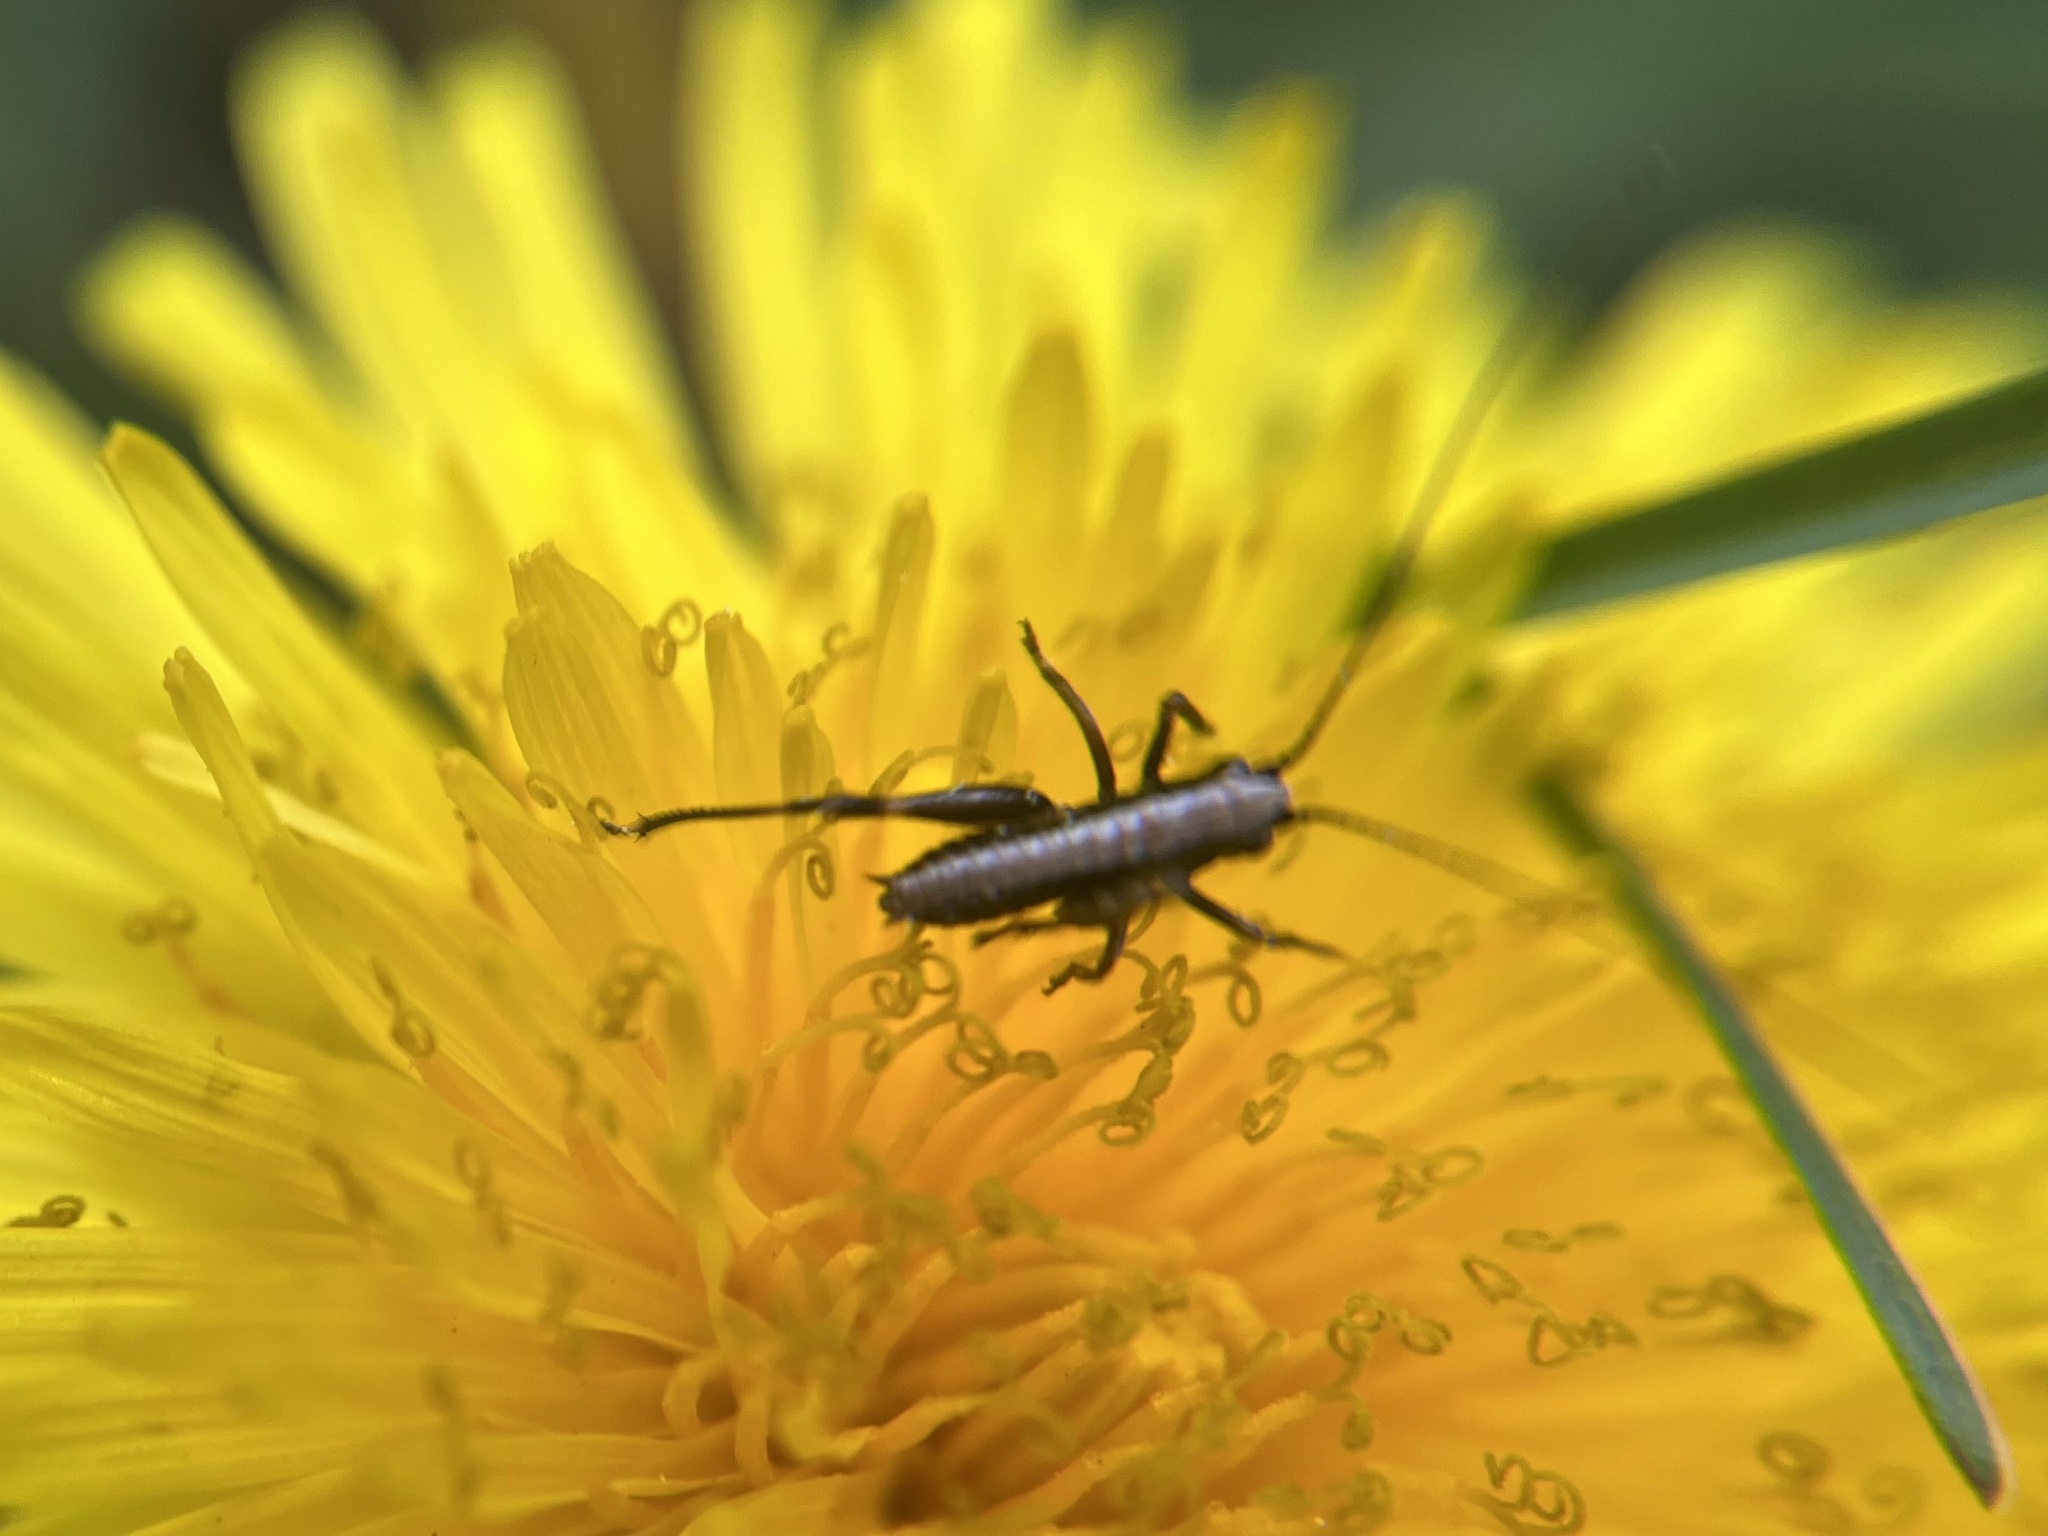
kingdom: Animalia
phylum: Arthropoda
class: Insecta
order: Orthoptera
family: Tettigoniidae
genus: Pholidoptera
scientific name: Pholidoptera griseoaptera
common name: Dark bush-cricket
